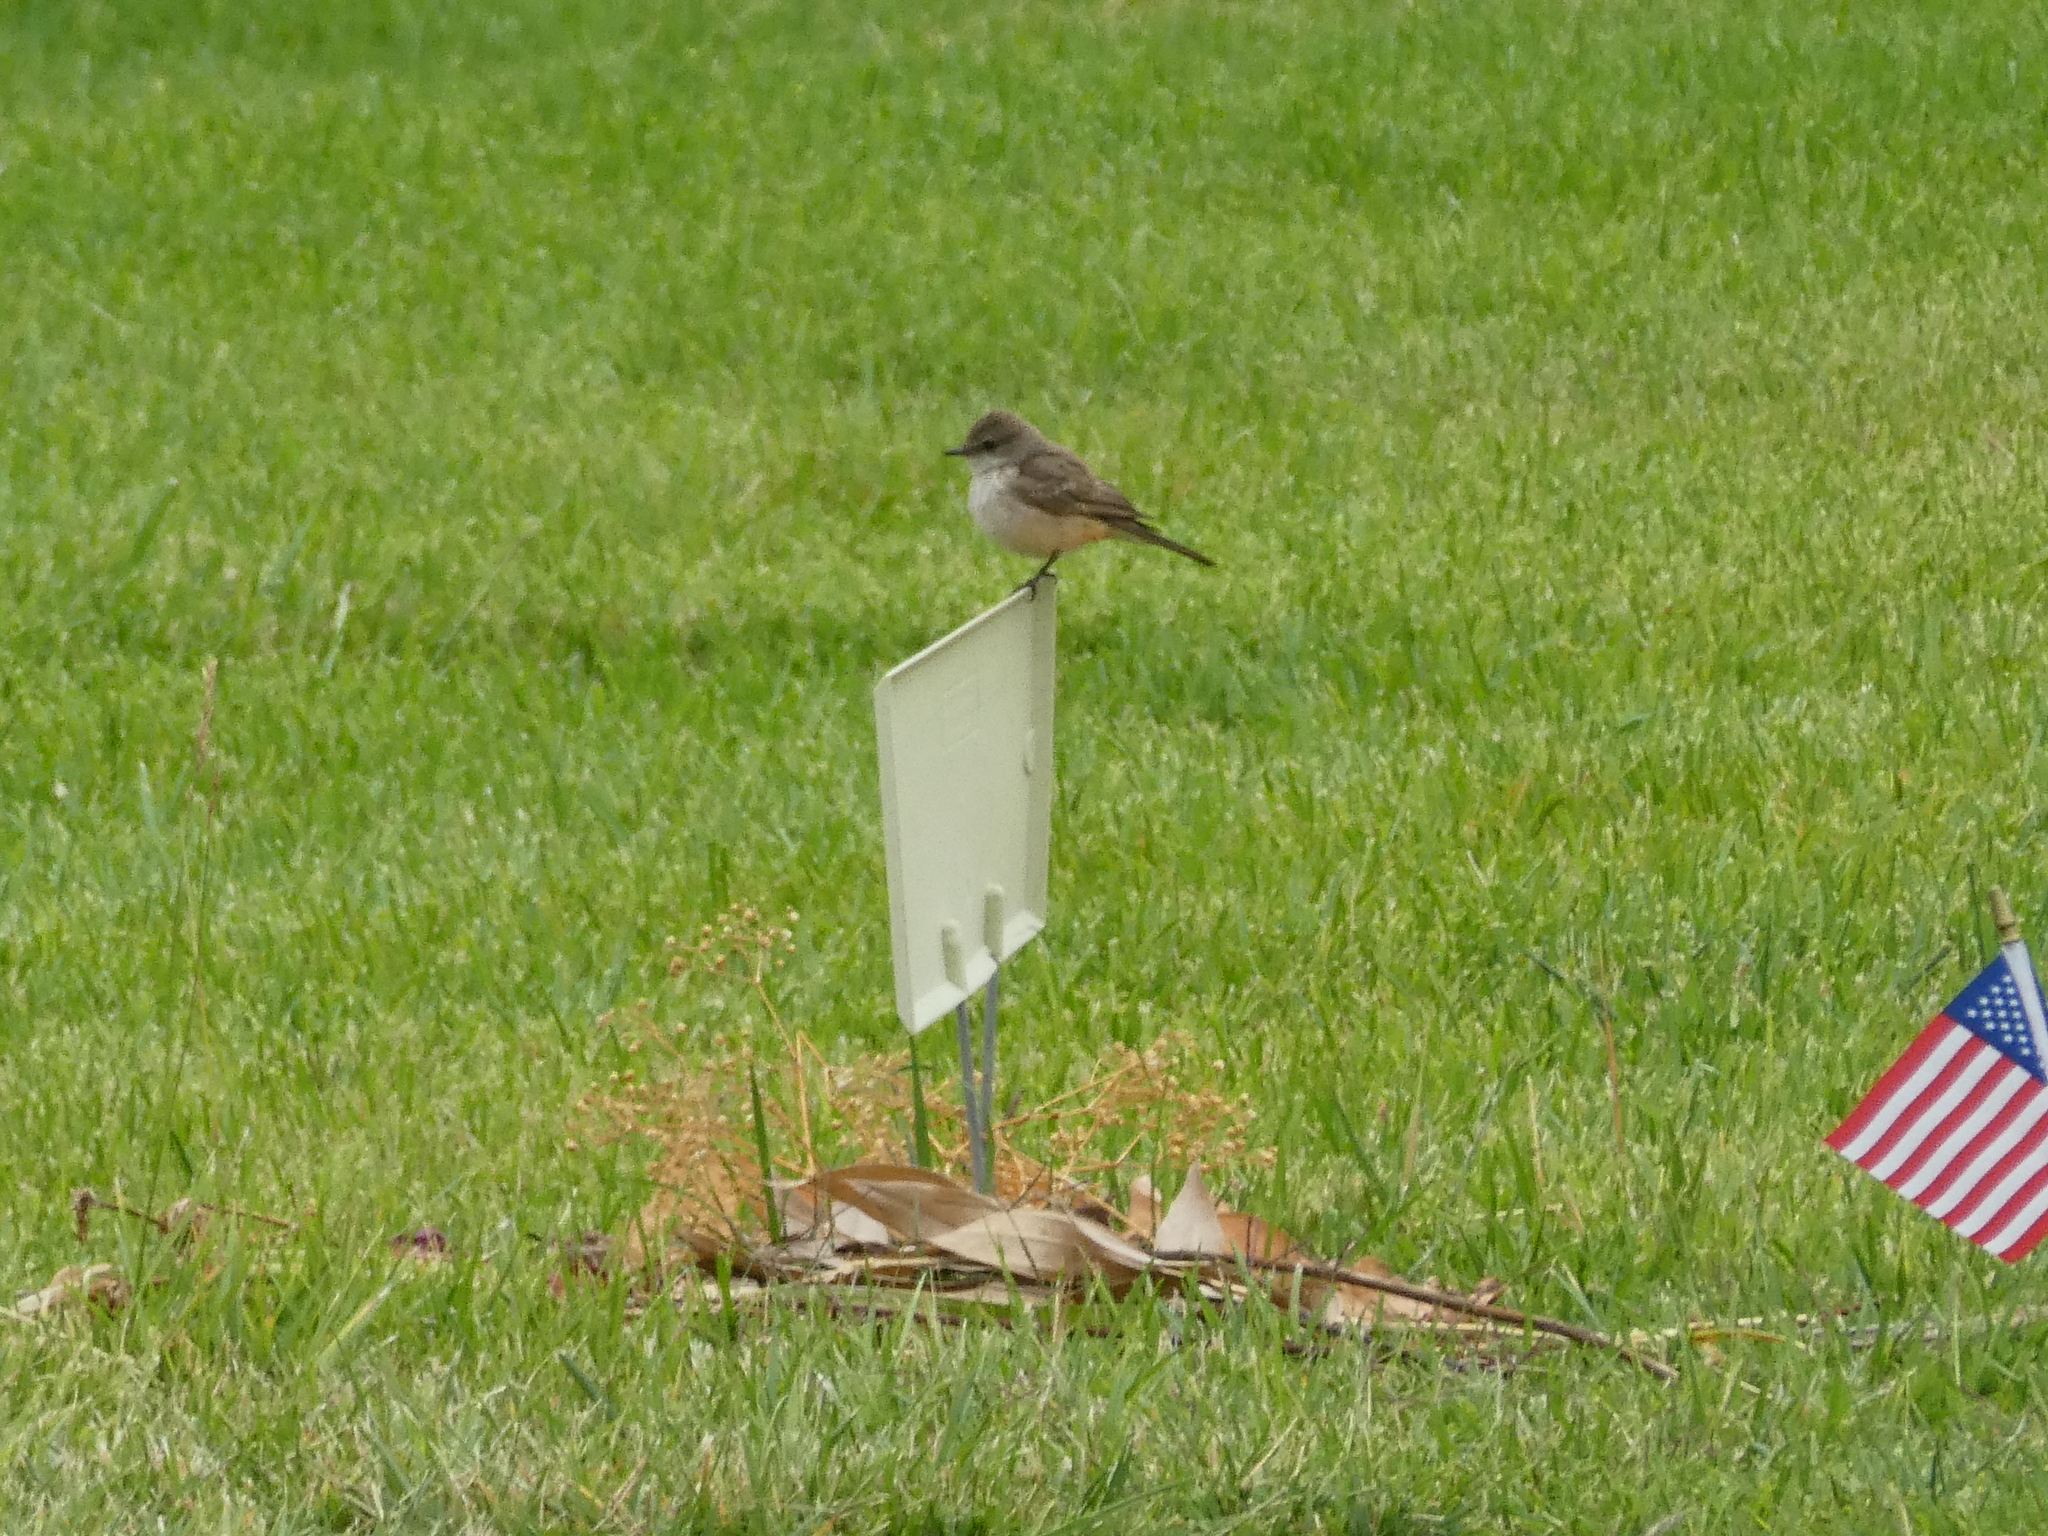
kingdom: Animalia
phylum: Chordata
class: Aves
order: Passeriformes
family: Tyrannidae
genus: Pyrocephalus
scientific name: Pyrocephalus rubinus
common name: Vermilion flycatcher
